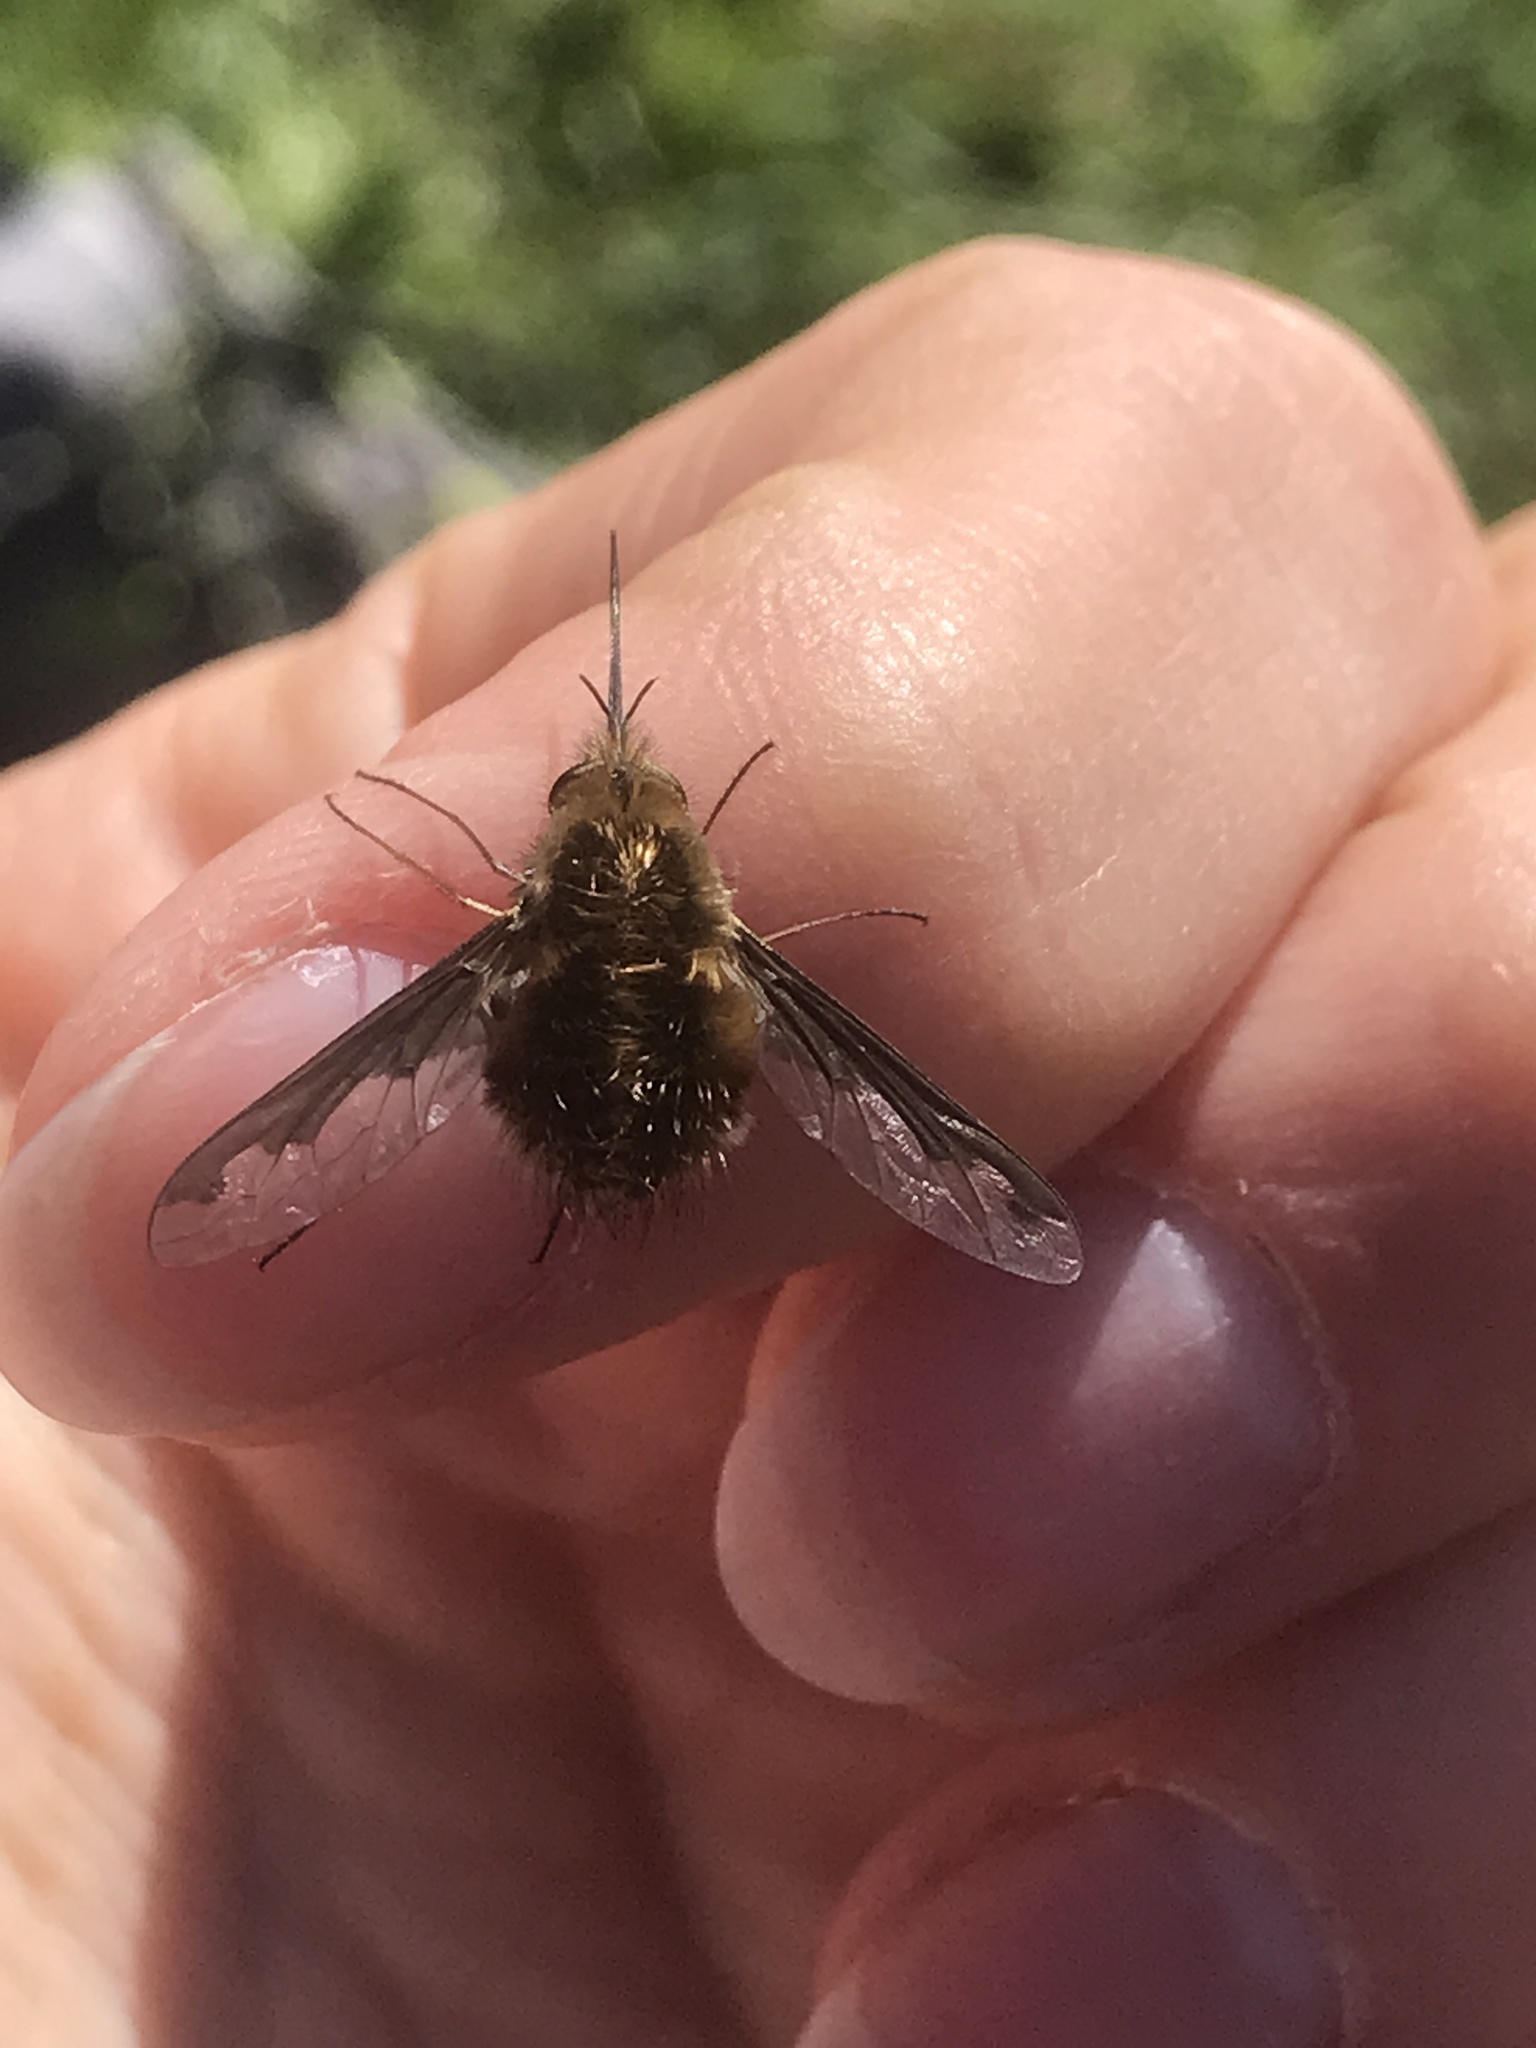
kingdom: Animalia
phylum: Arthropoda
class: Insecta
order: Diptera
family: Bombyliidae
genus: Bombylius
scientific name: Bombylius major
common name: Bee fly
